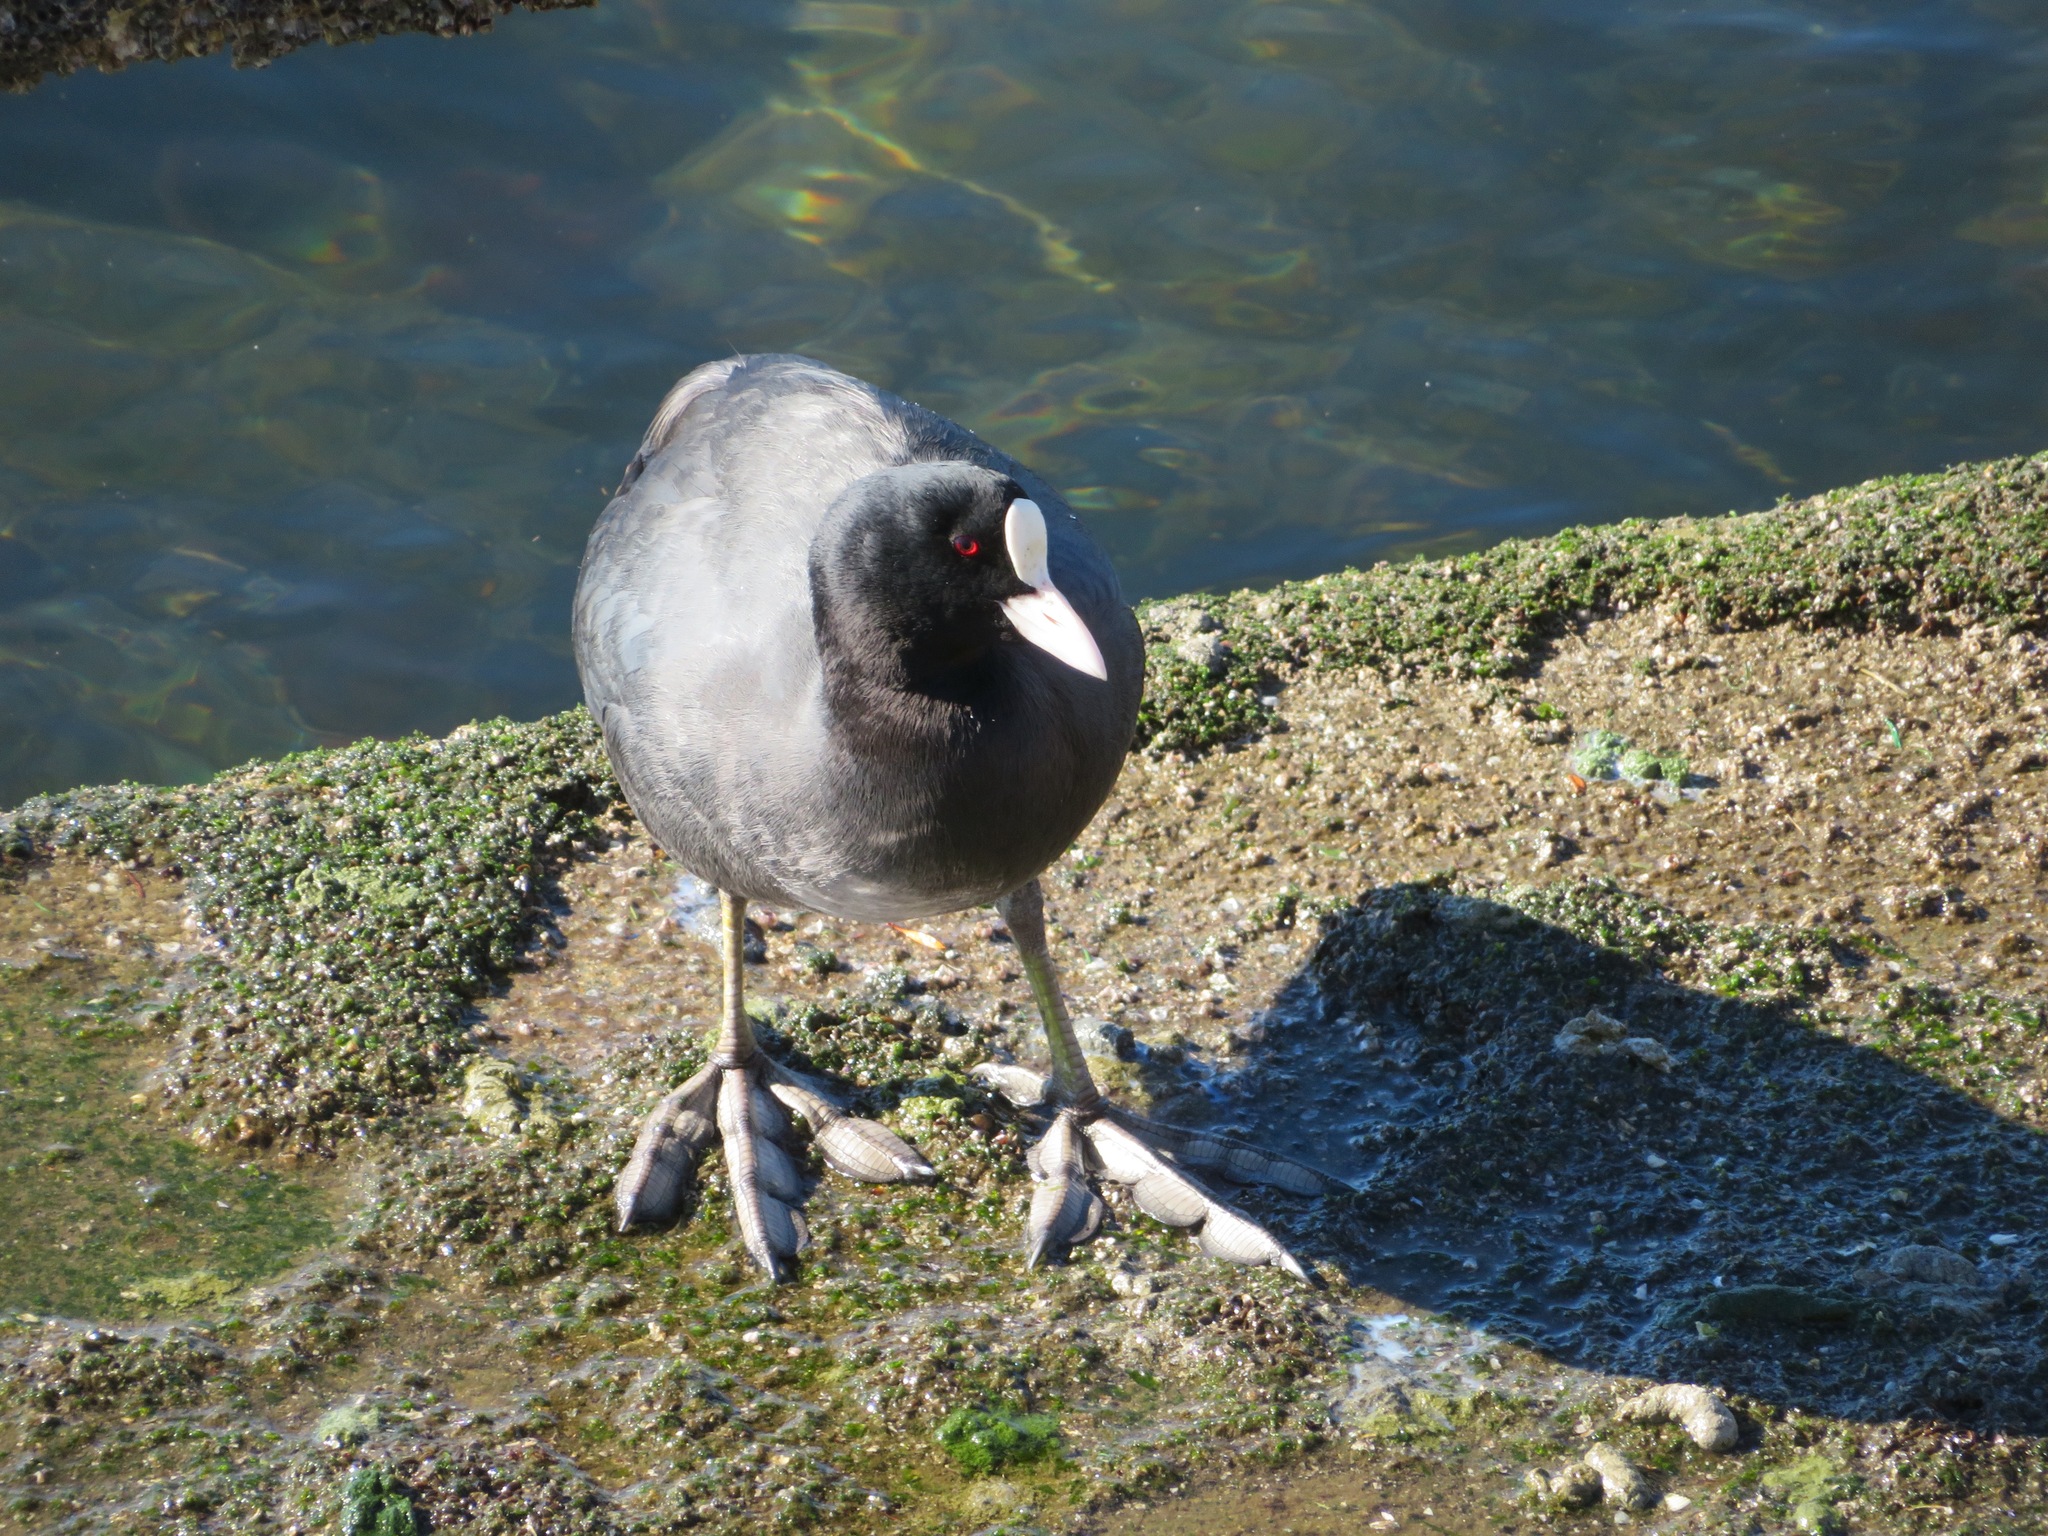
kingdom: Animalia
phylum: Chordata
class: Aves
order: Gruiformes
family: Rallidae
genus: Fulica
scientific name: Fulica atra
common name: Eurasian coot
